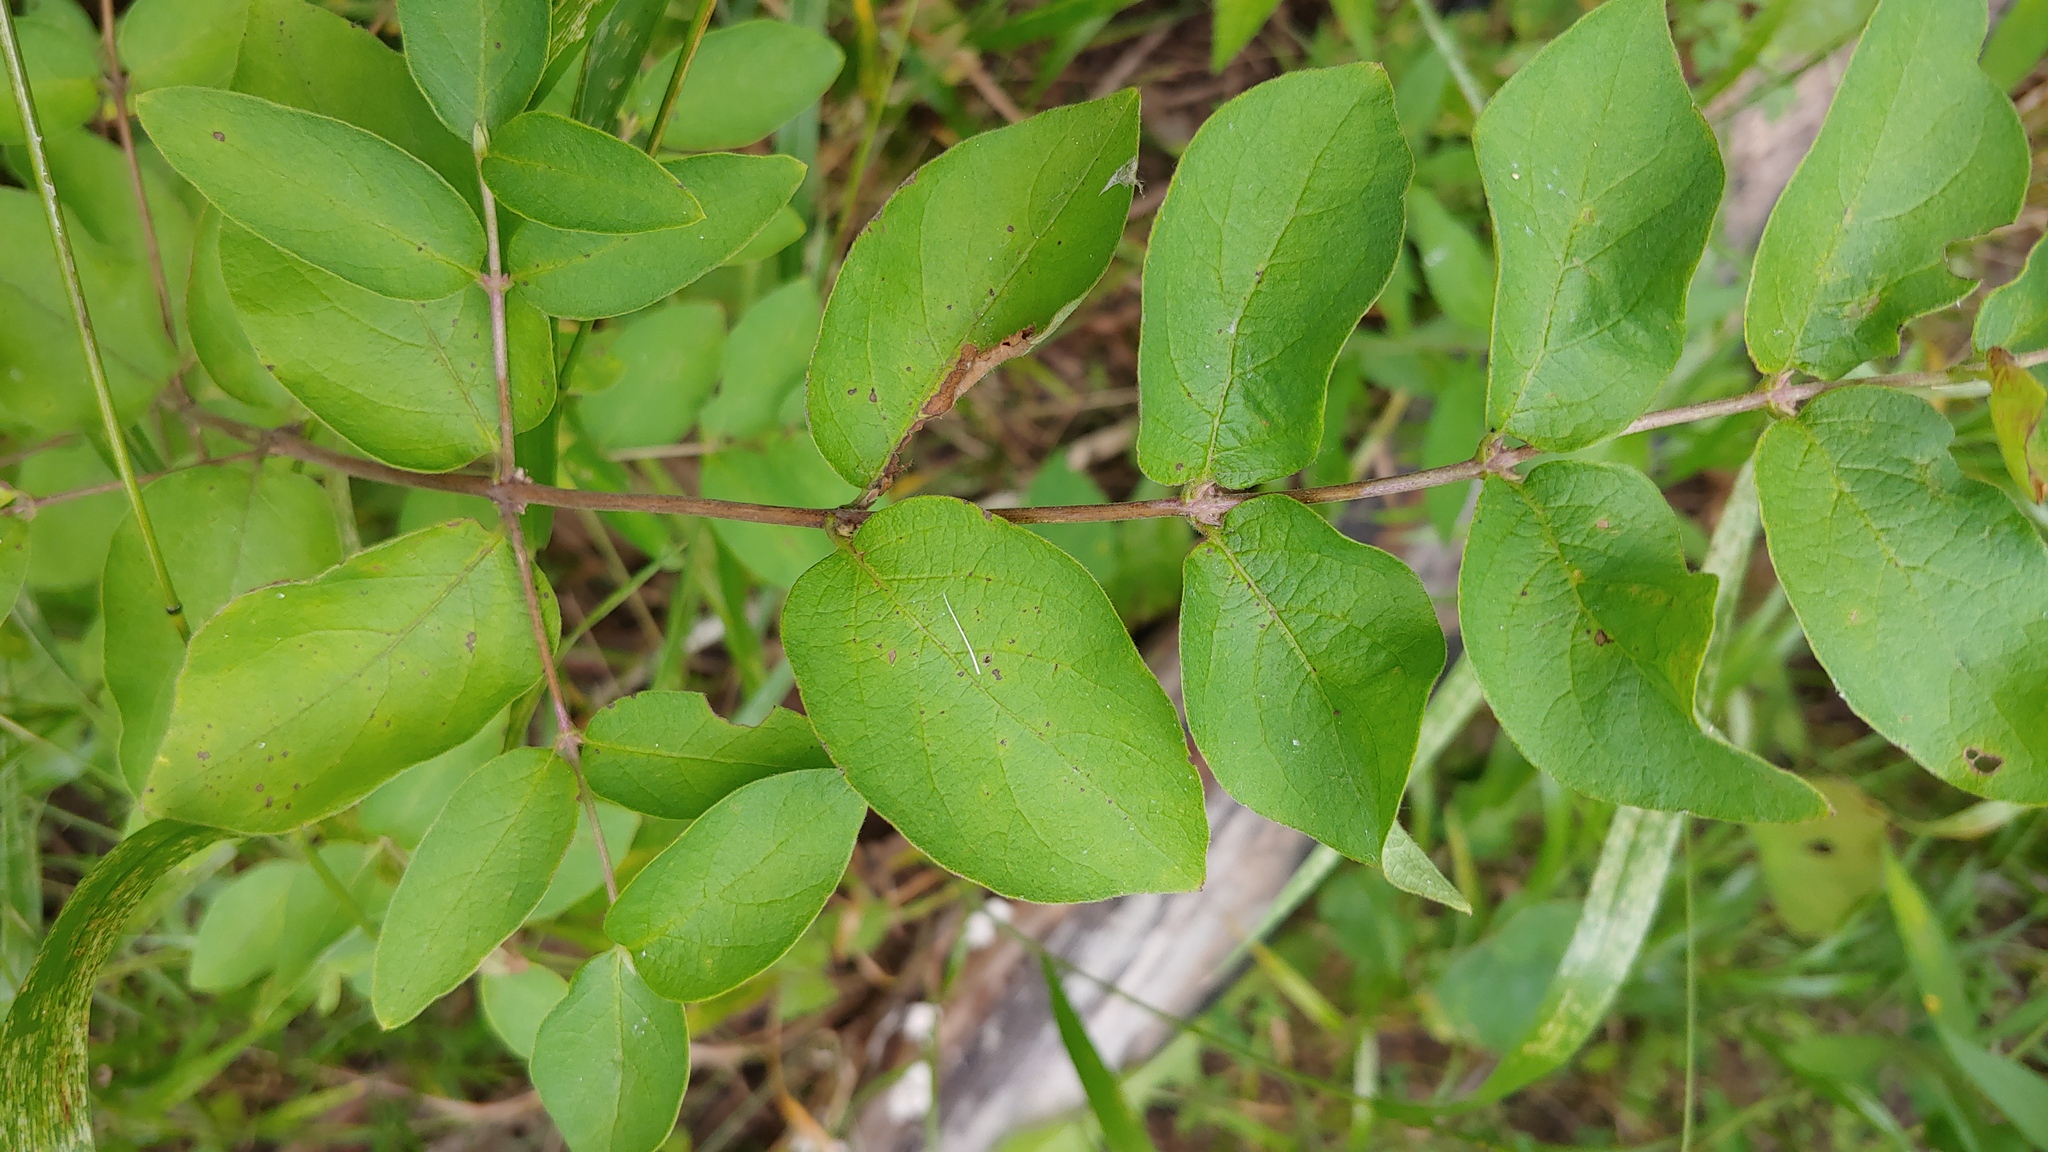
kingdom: Plantae
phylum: Tracheophyta
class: Magnoliopsida
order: Dipsacales
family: Caprifoliaceae
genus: Lonicera
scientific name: Lonicera morrowii
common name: Morrow's honeysuckle
